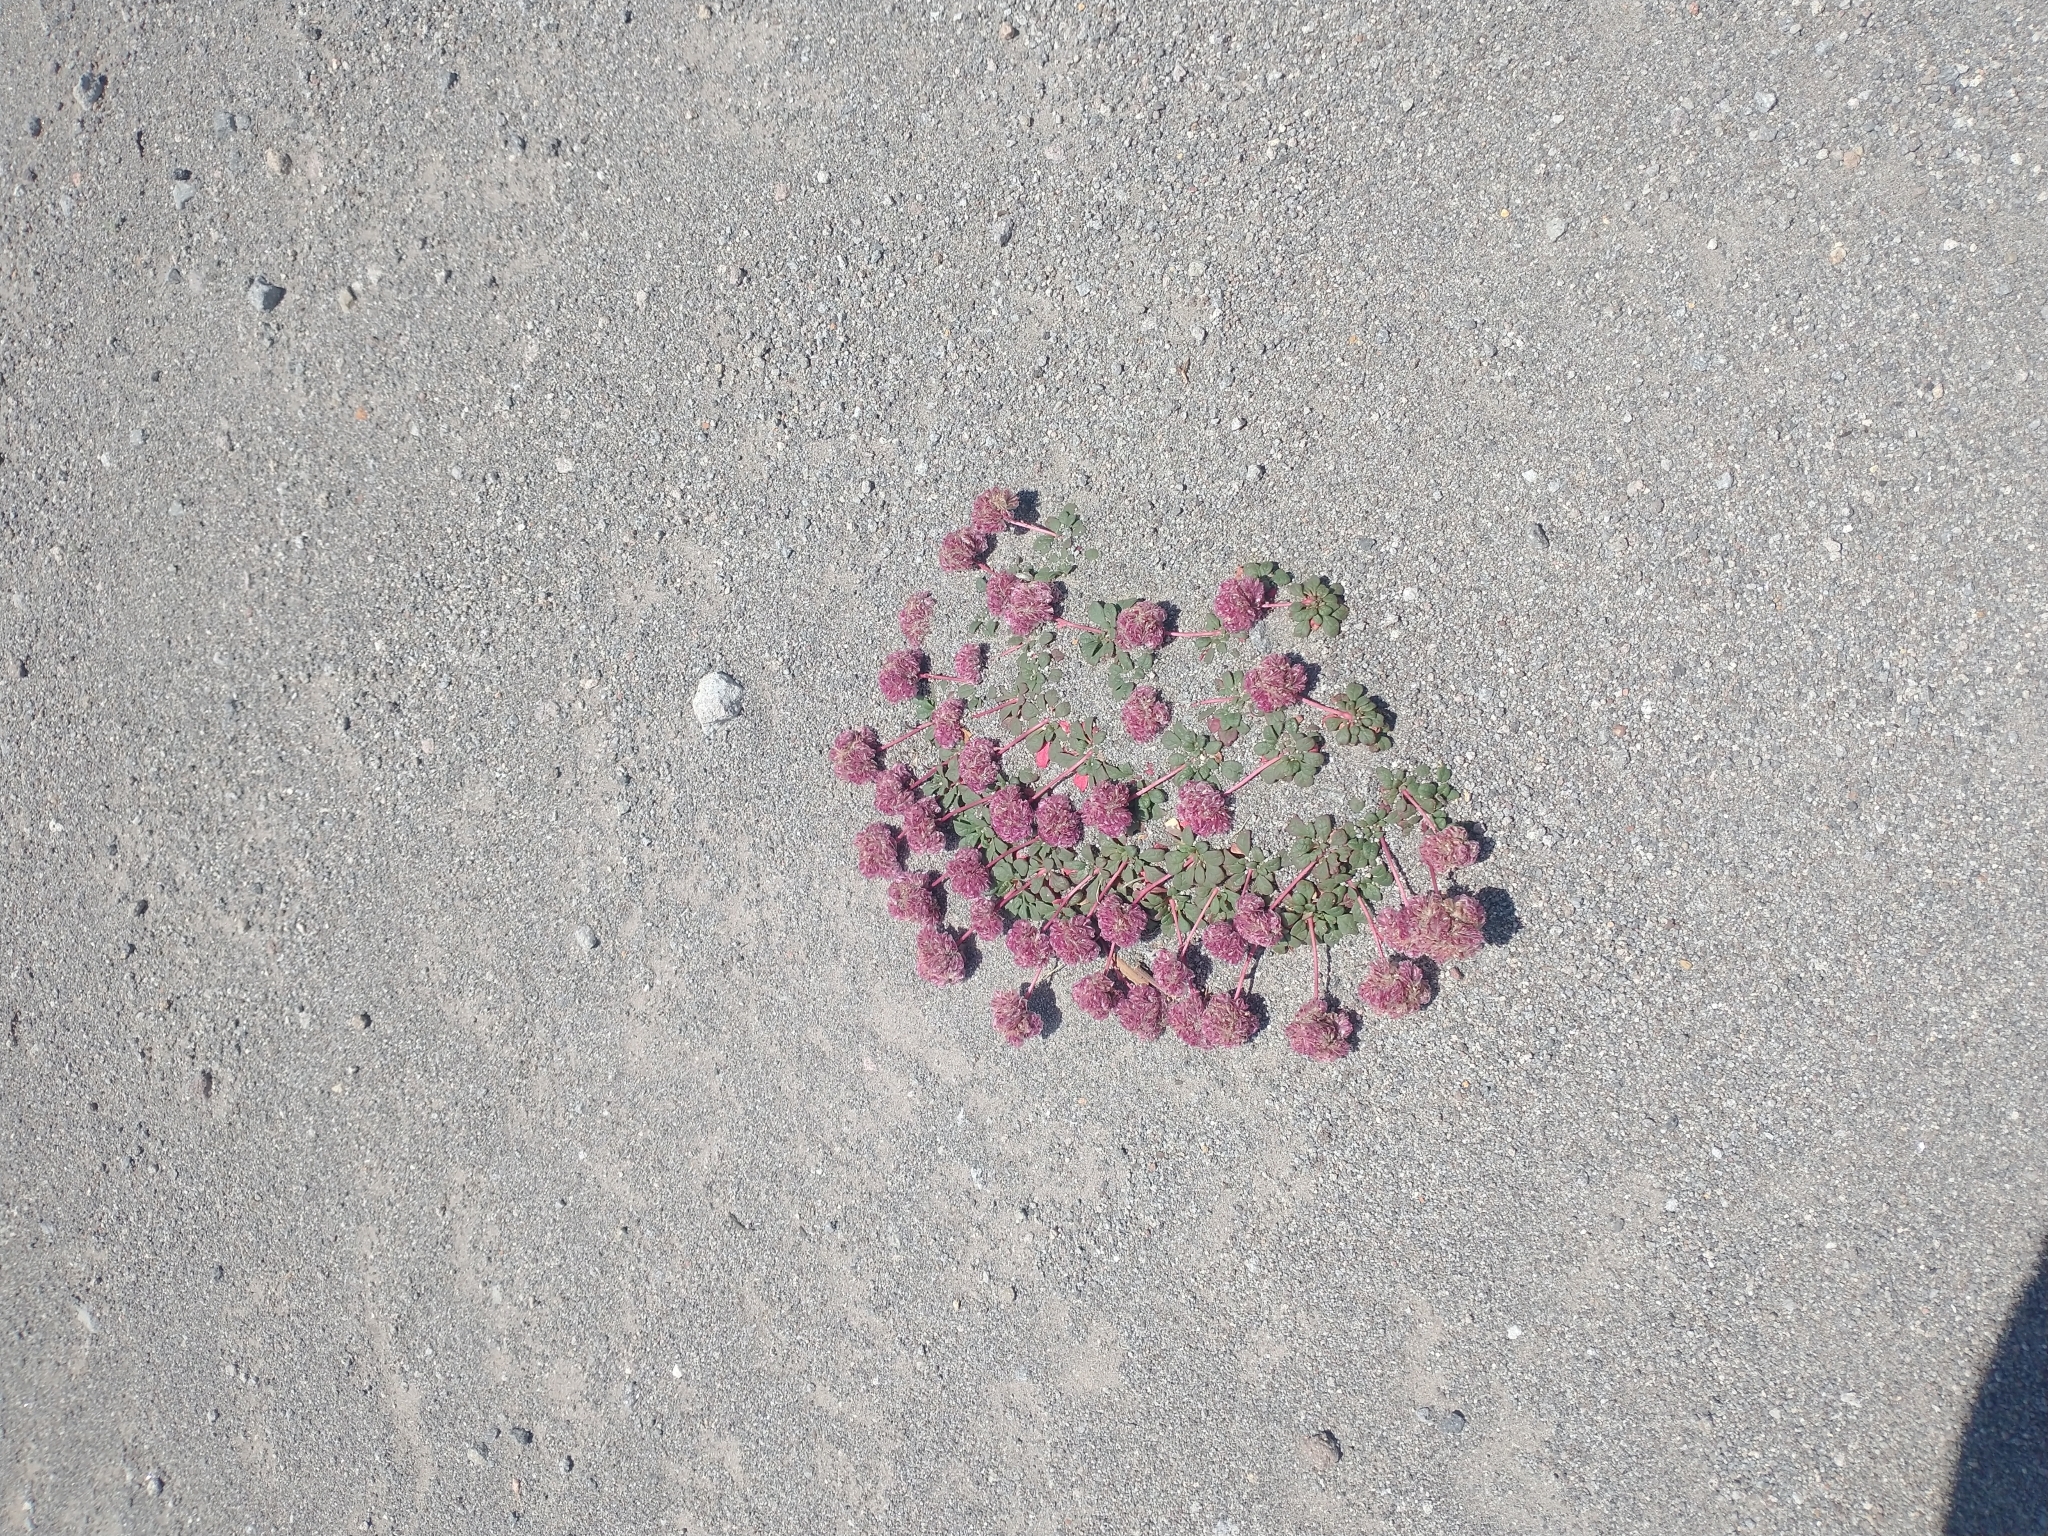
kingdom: Plantae
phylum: Tracheophyta
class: Magnoliopsida
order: Caryophyllales
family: Montiaceae
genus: Calyptridium
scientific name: Calyptridium umbellatum
